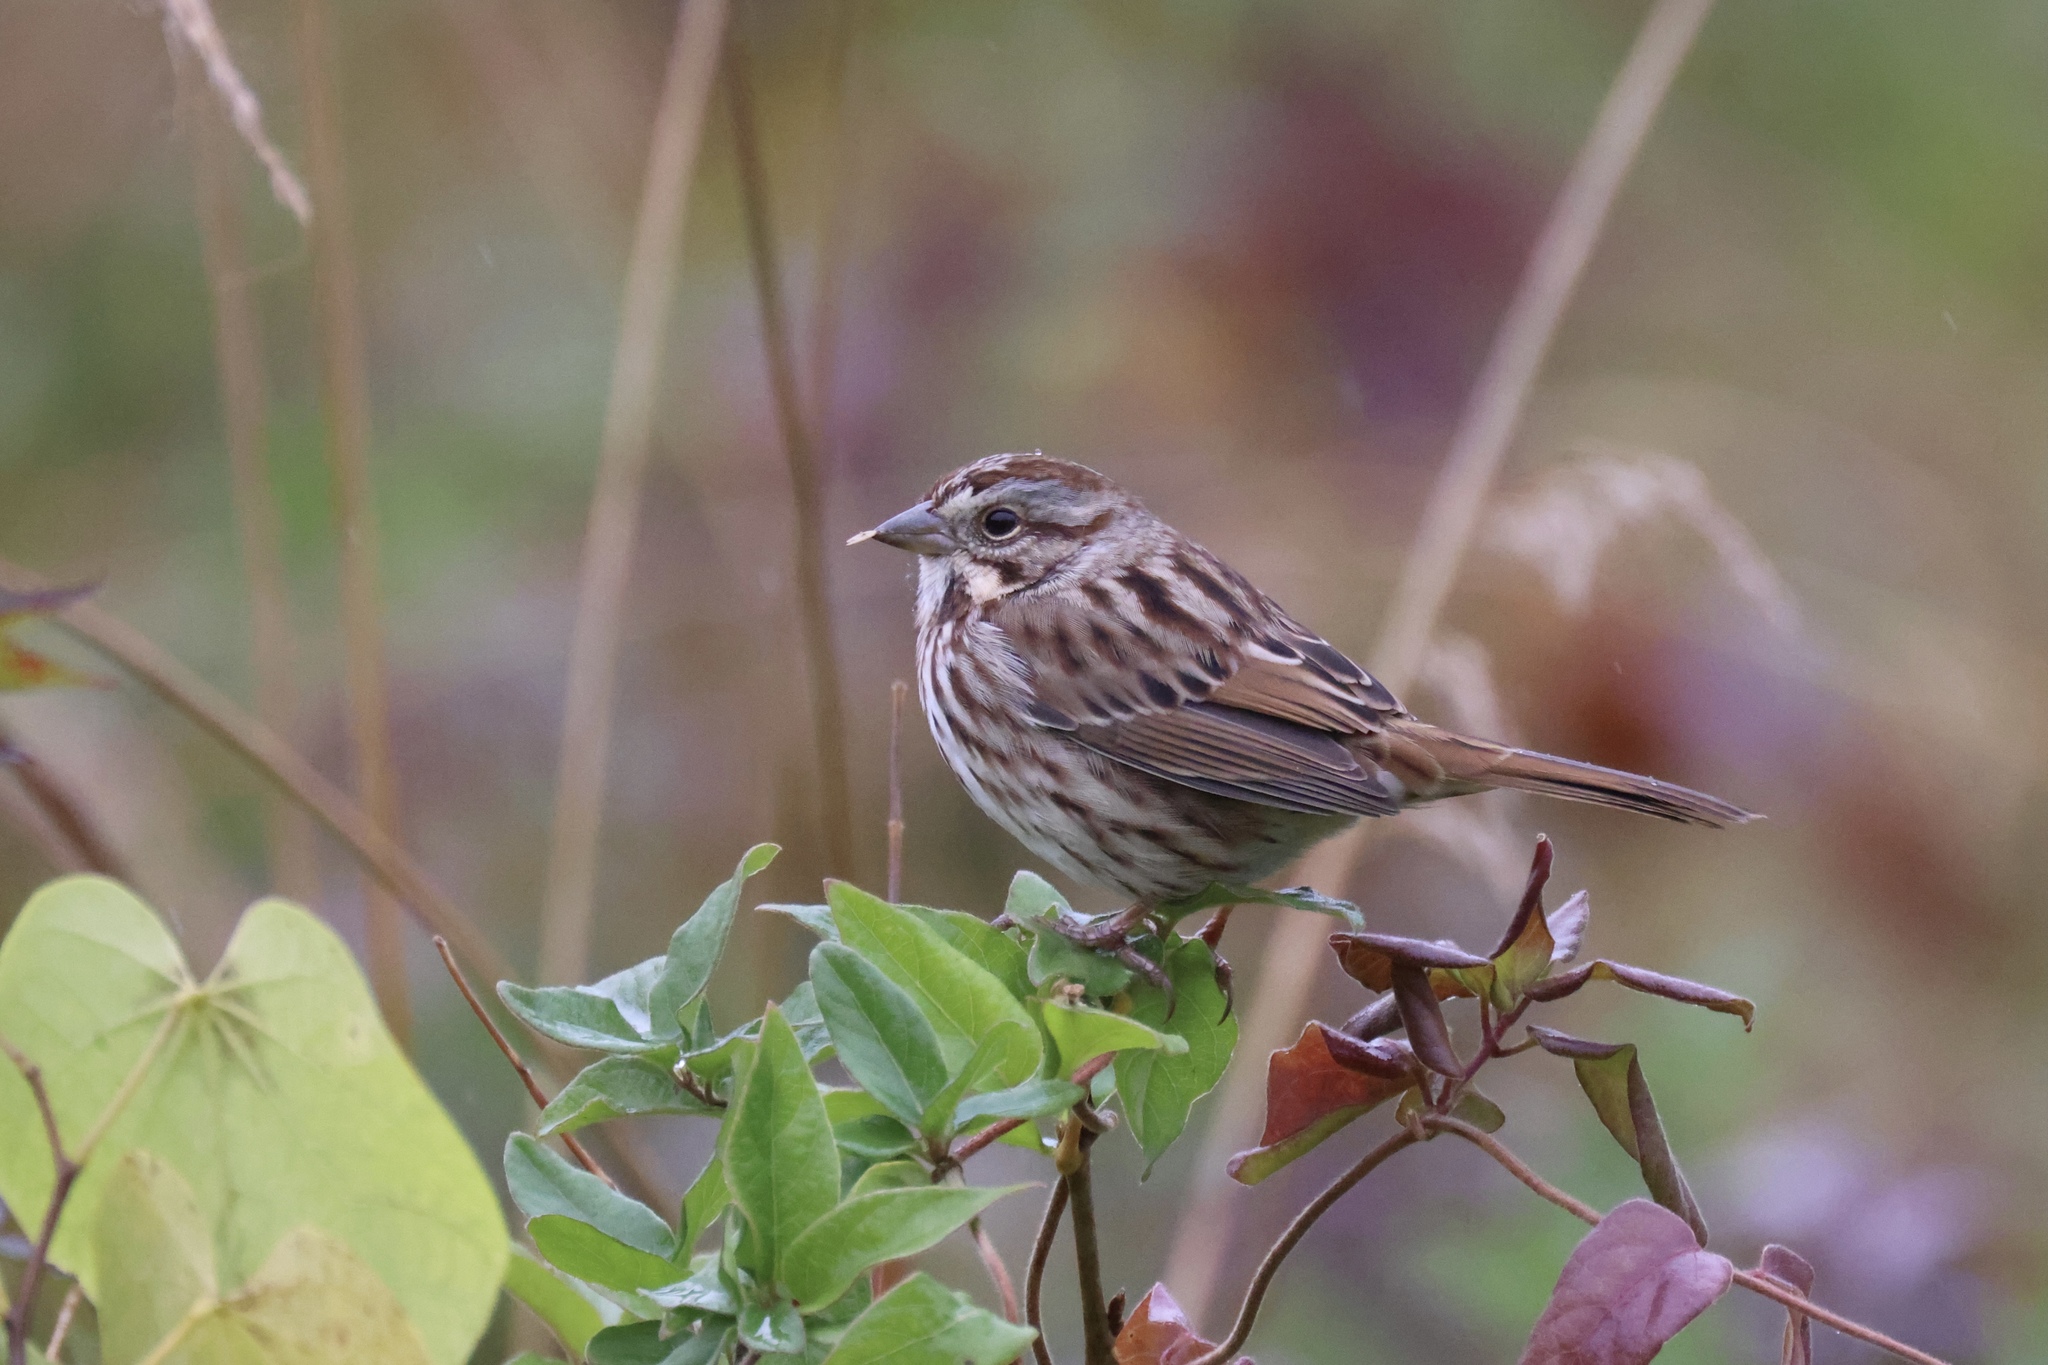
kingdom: Animalia
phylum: Chordata
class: Aves
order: Passeriformes
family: Passerellidae
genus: Melospiza
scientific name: Melospiza melodia
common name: Song sparrow
